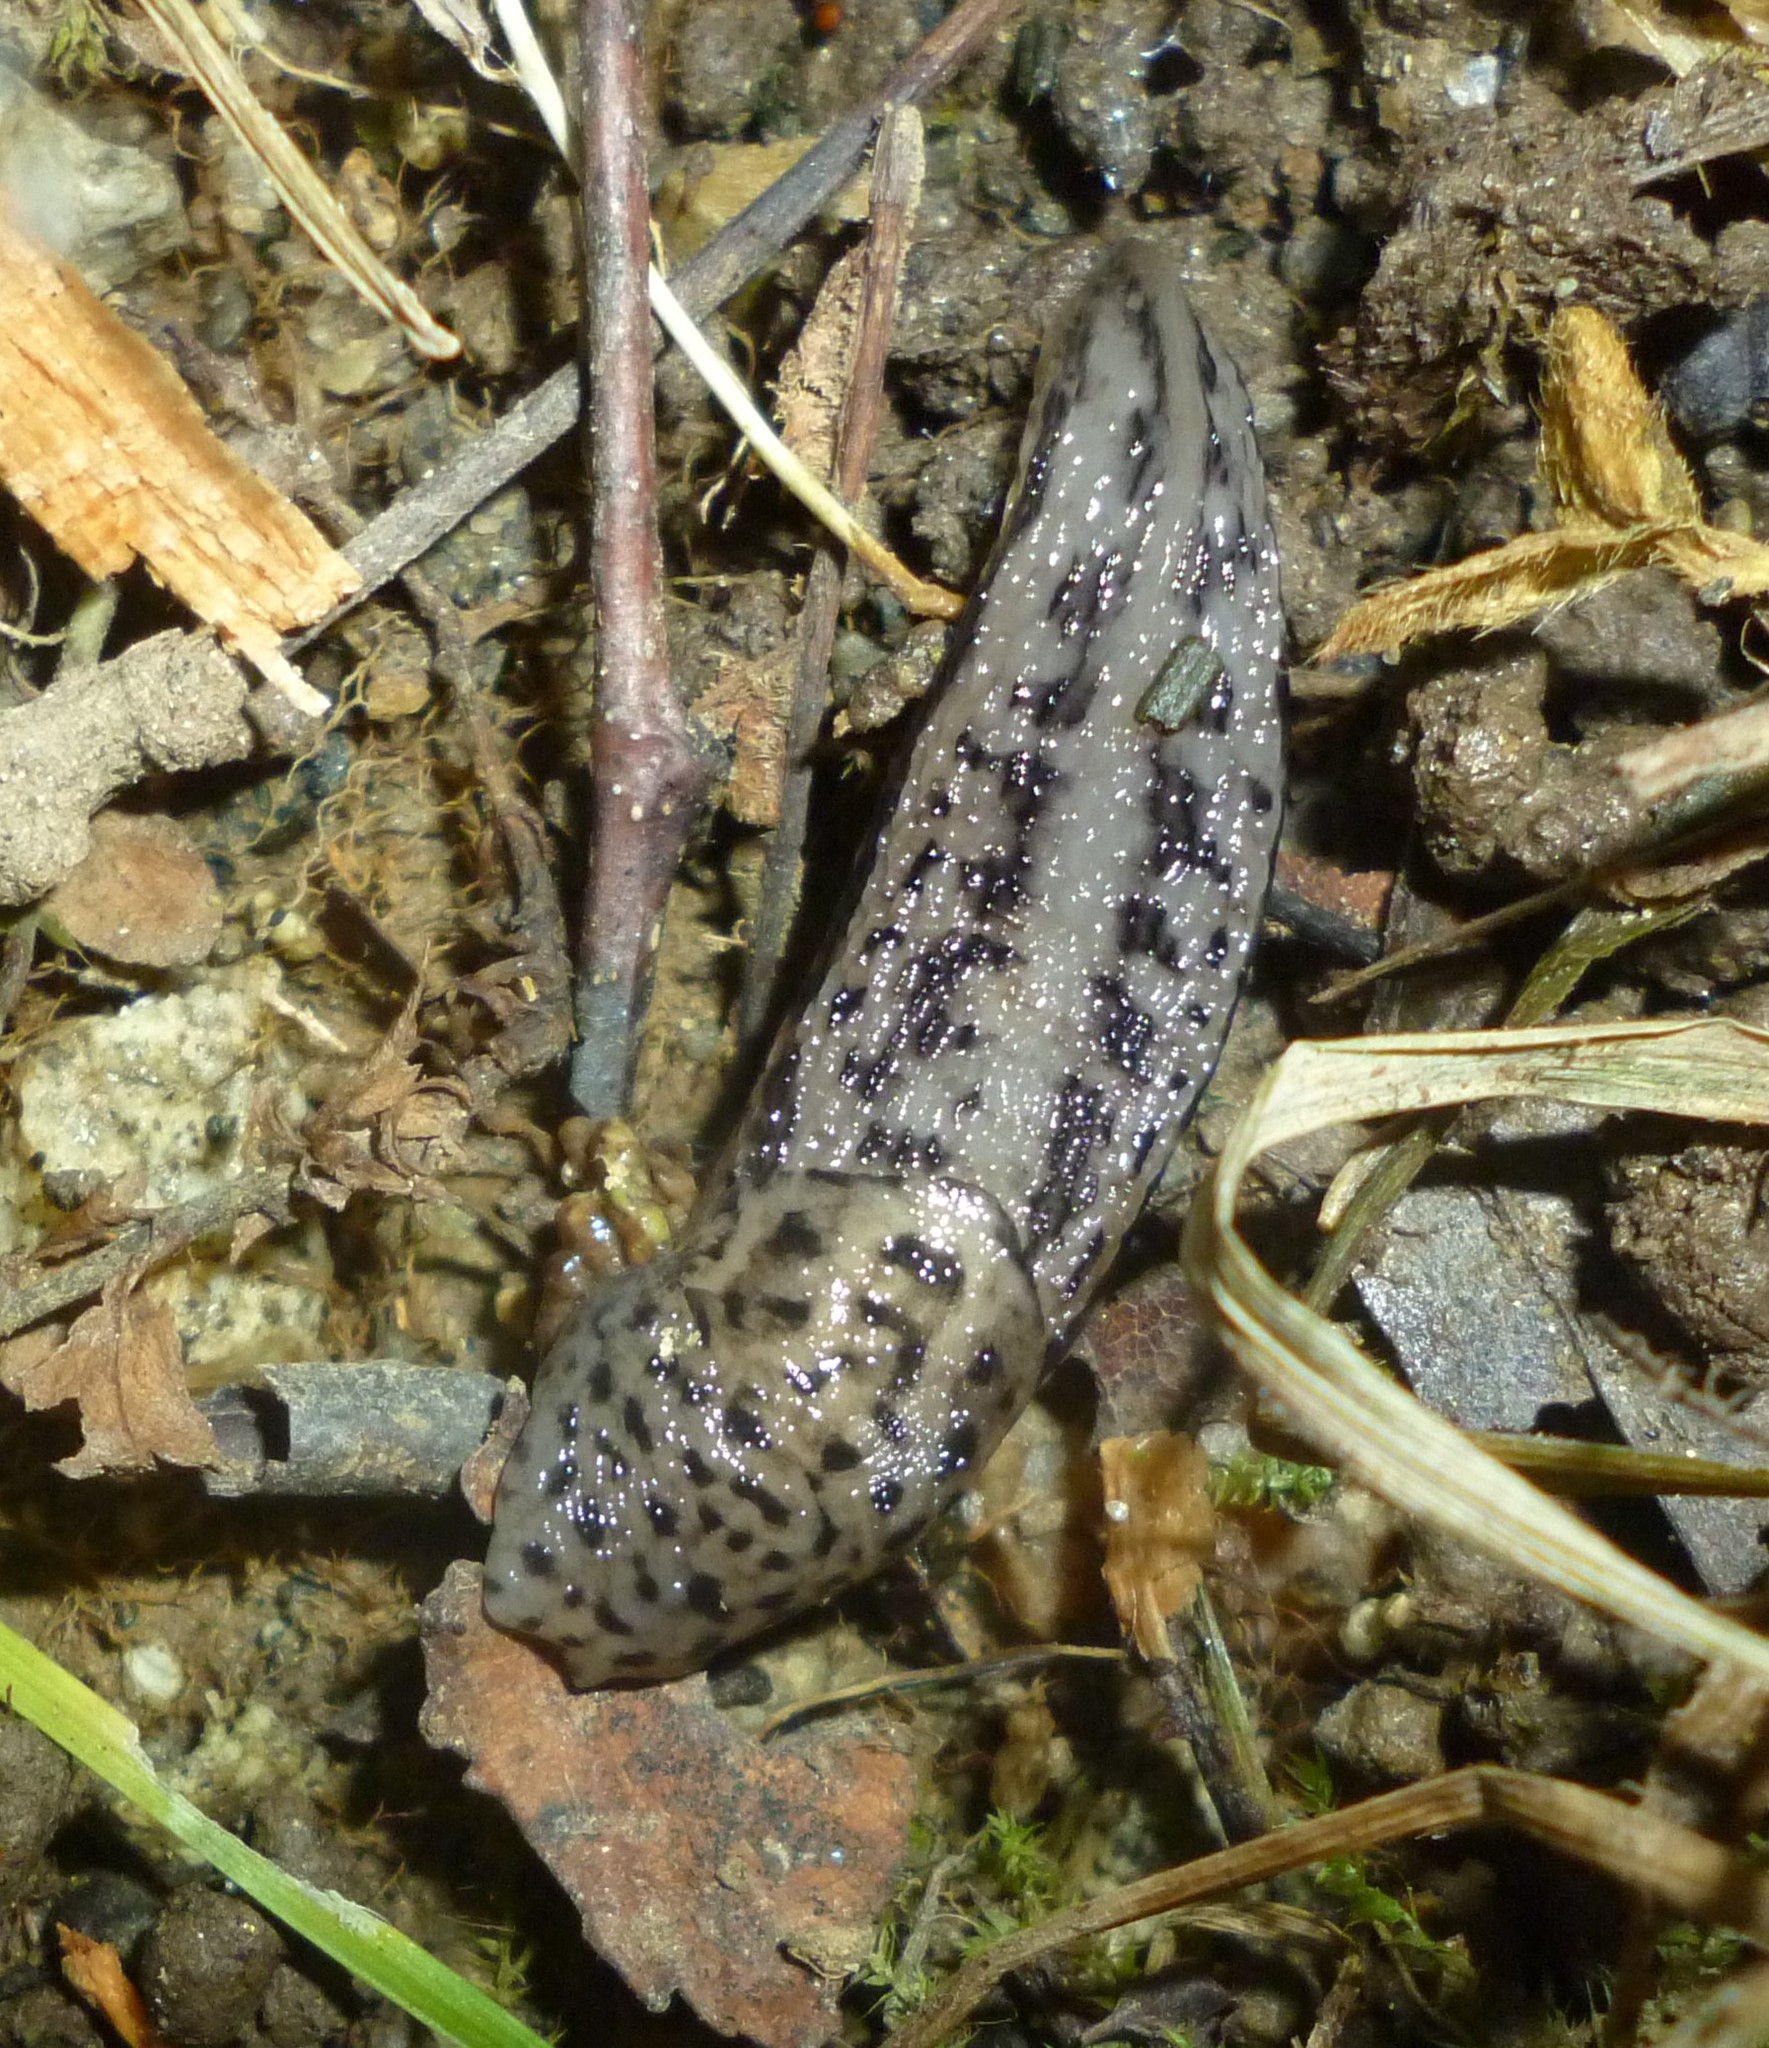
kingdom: Animalia
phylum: Mollusca
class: Gastropoda
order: Stylommatophora
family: Limacidae
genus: Limax
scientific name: Limax maximus
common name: Great grey slug
